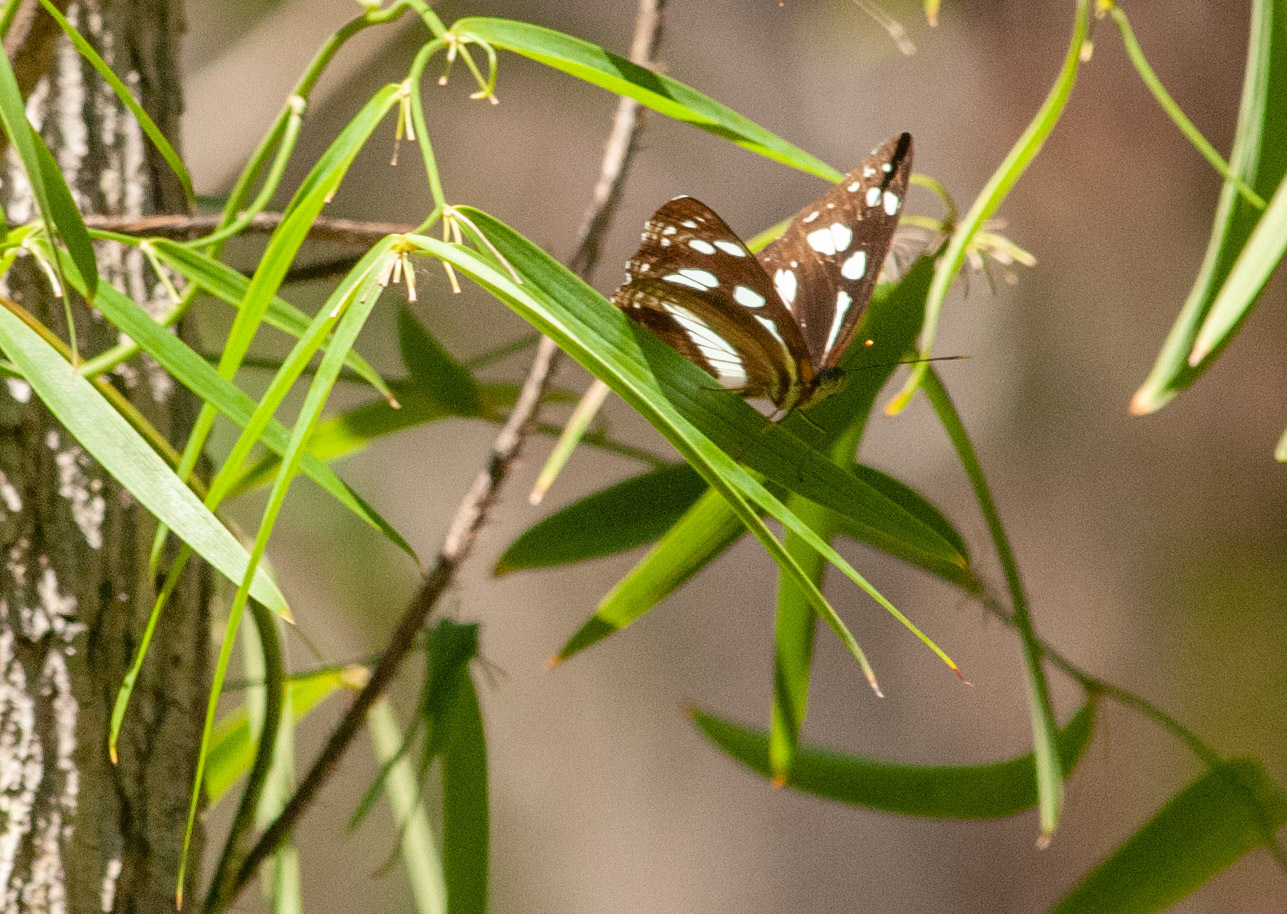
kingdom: Animalia
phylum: Arthropoda
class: Insecta
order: Lepidoptera
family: Nymphalidae
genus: Phaedyma
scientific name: Phaedyma shepherdi
